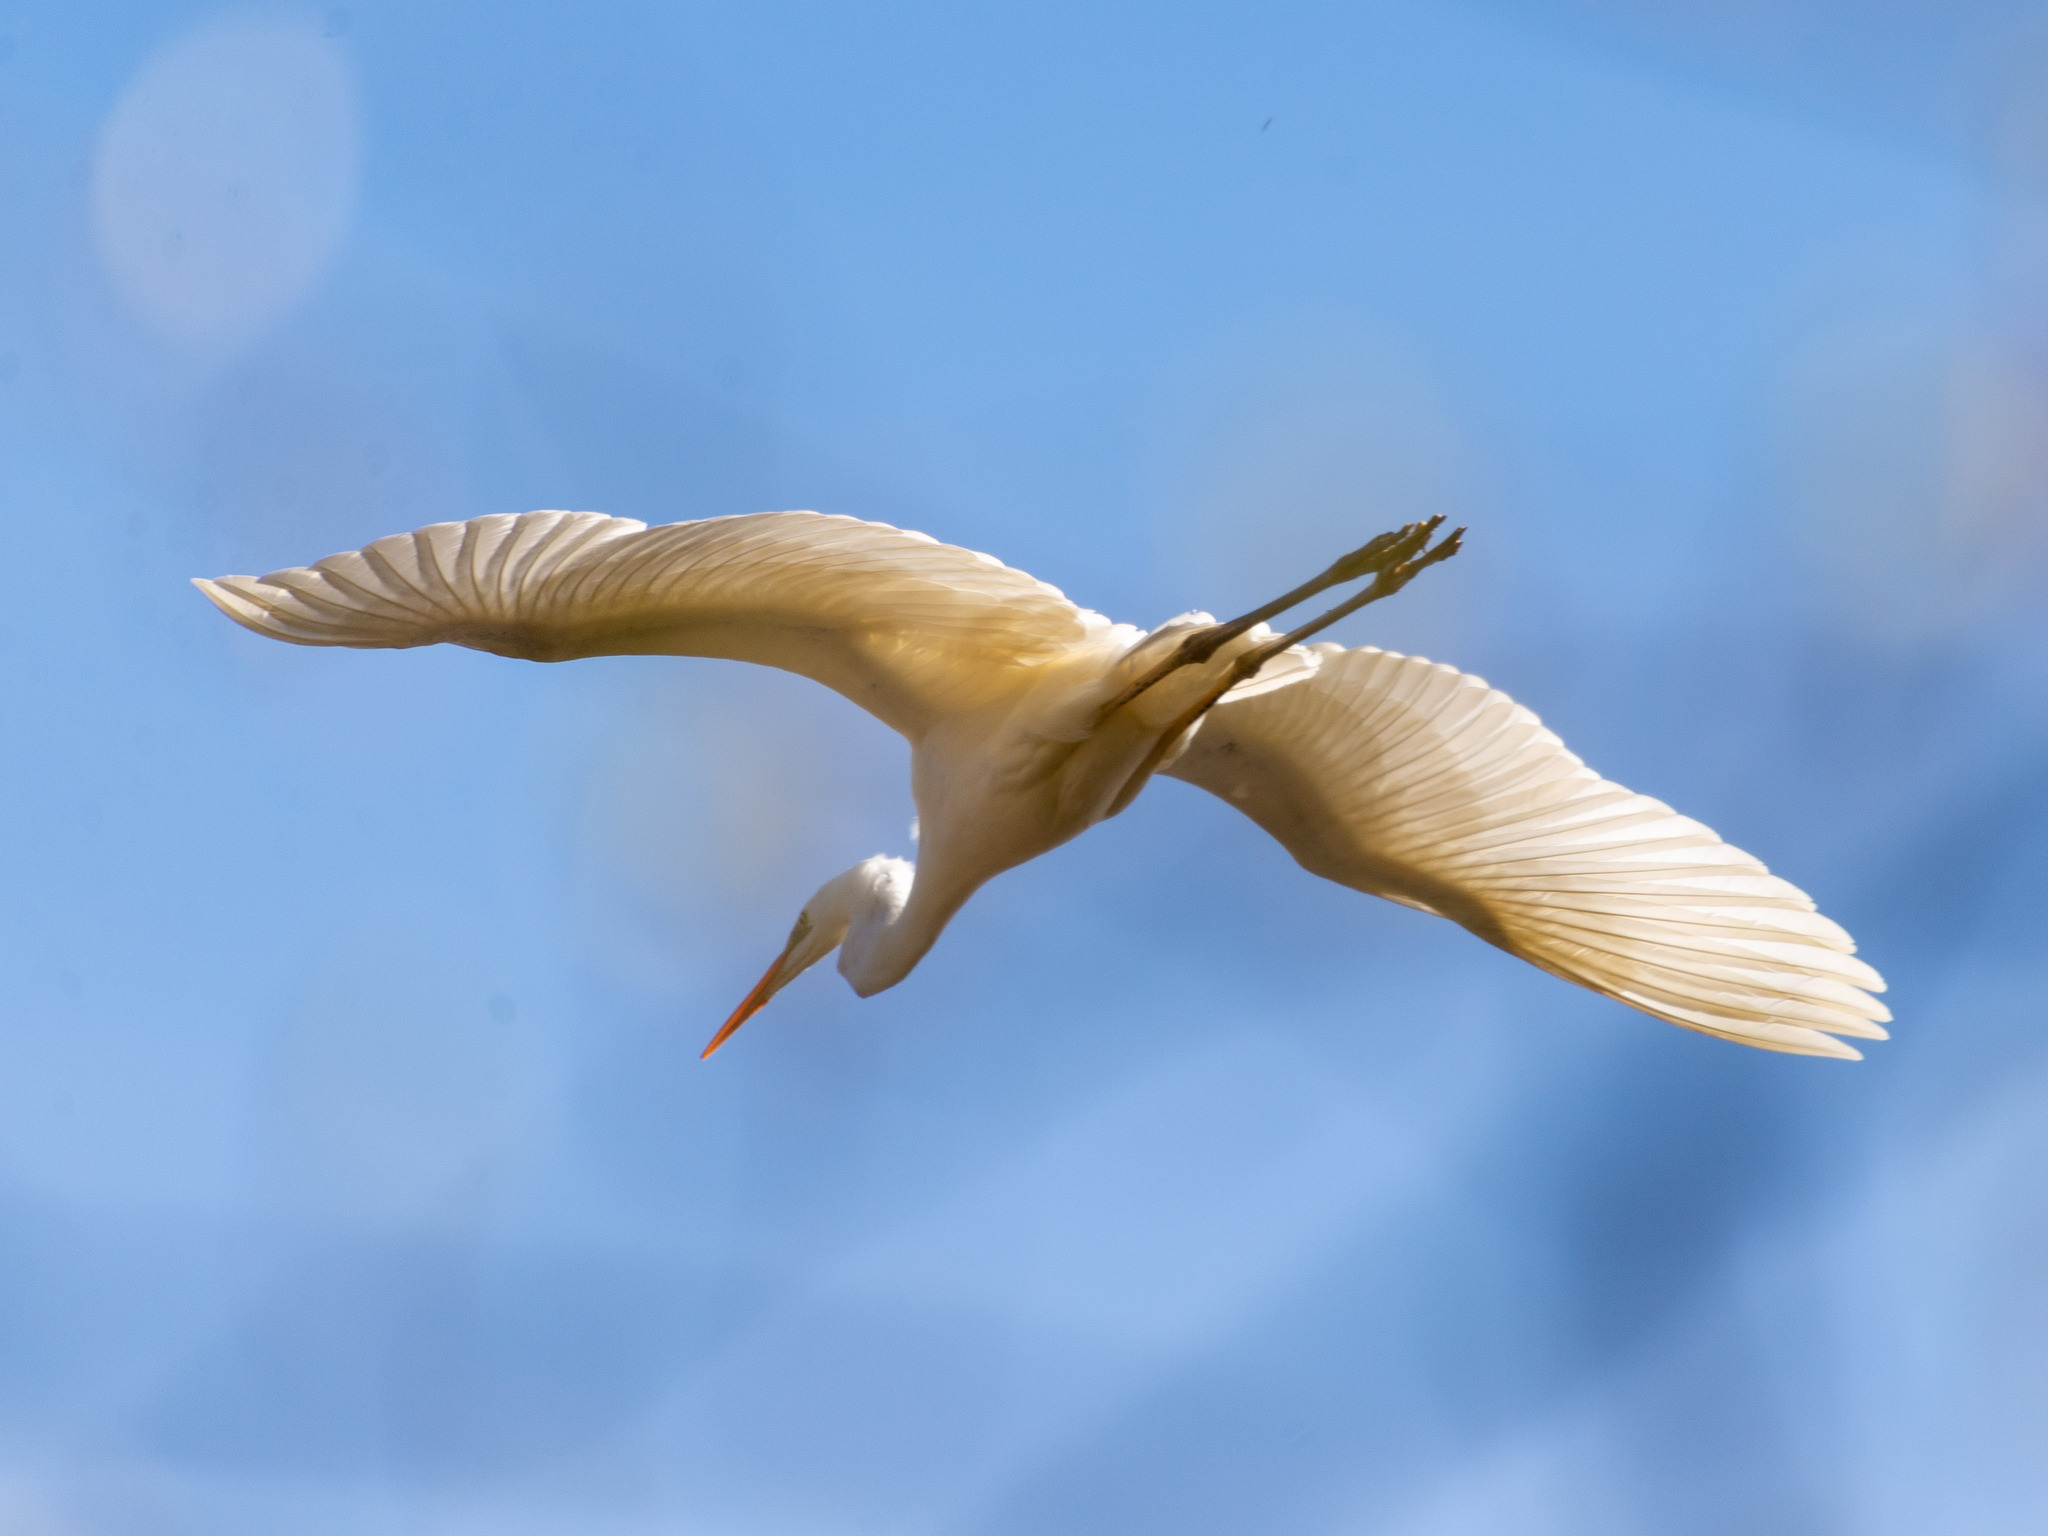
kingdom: Animalia
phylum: Chordata
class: Aves
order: Pelecaniformes
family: Ardeidae
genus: Ardea
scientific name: Ardea alba
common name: Great egret
